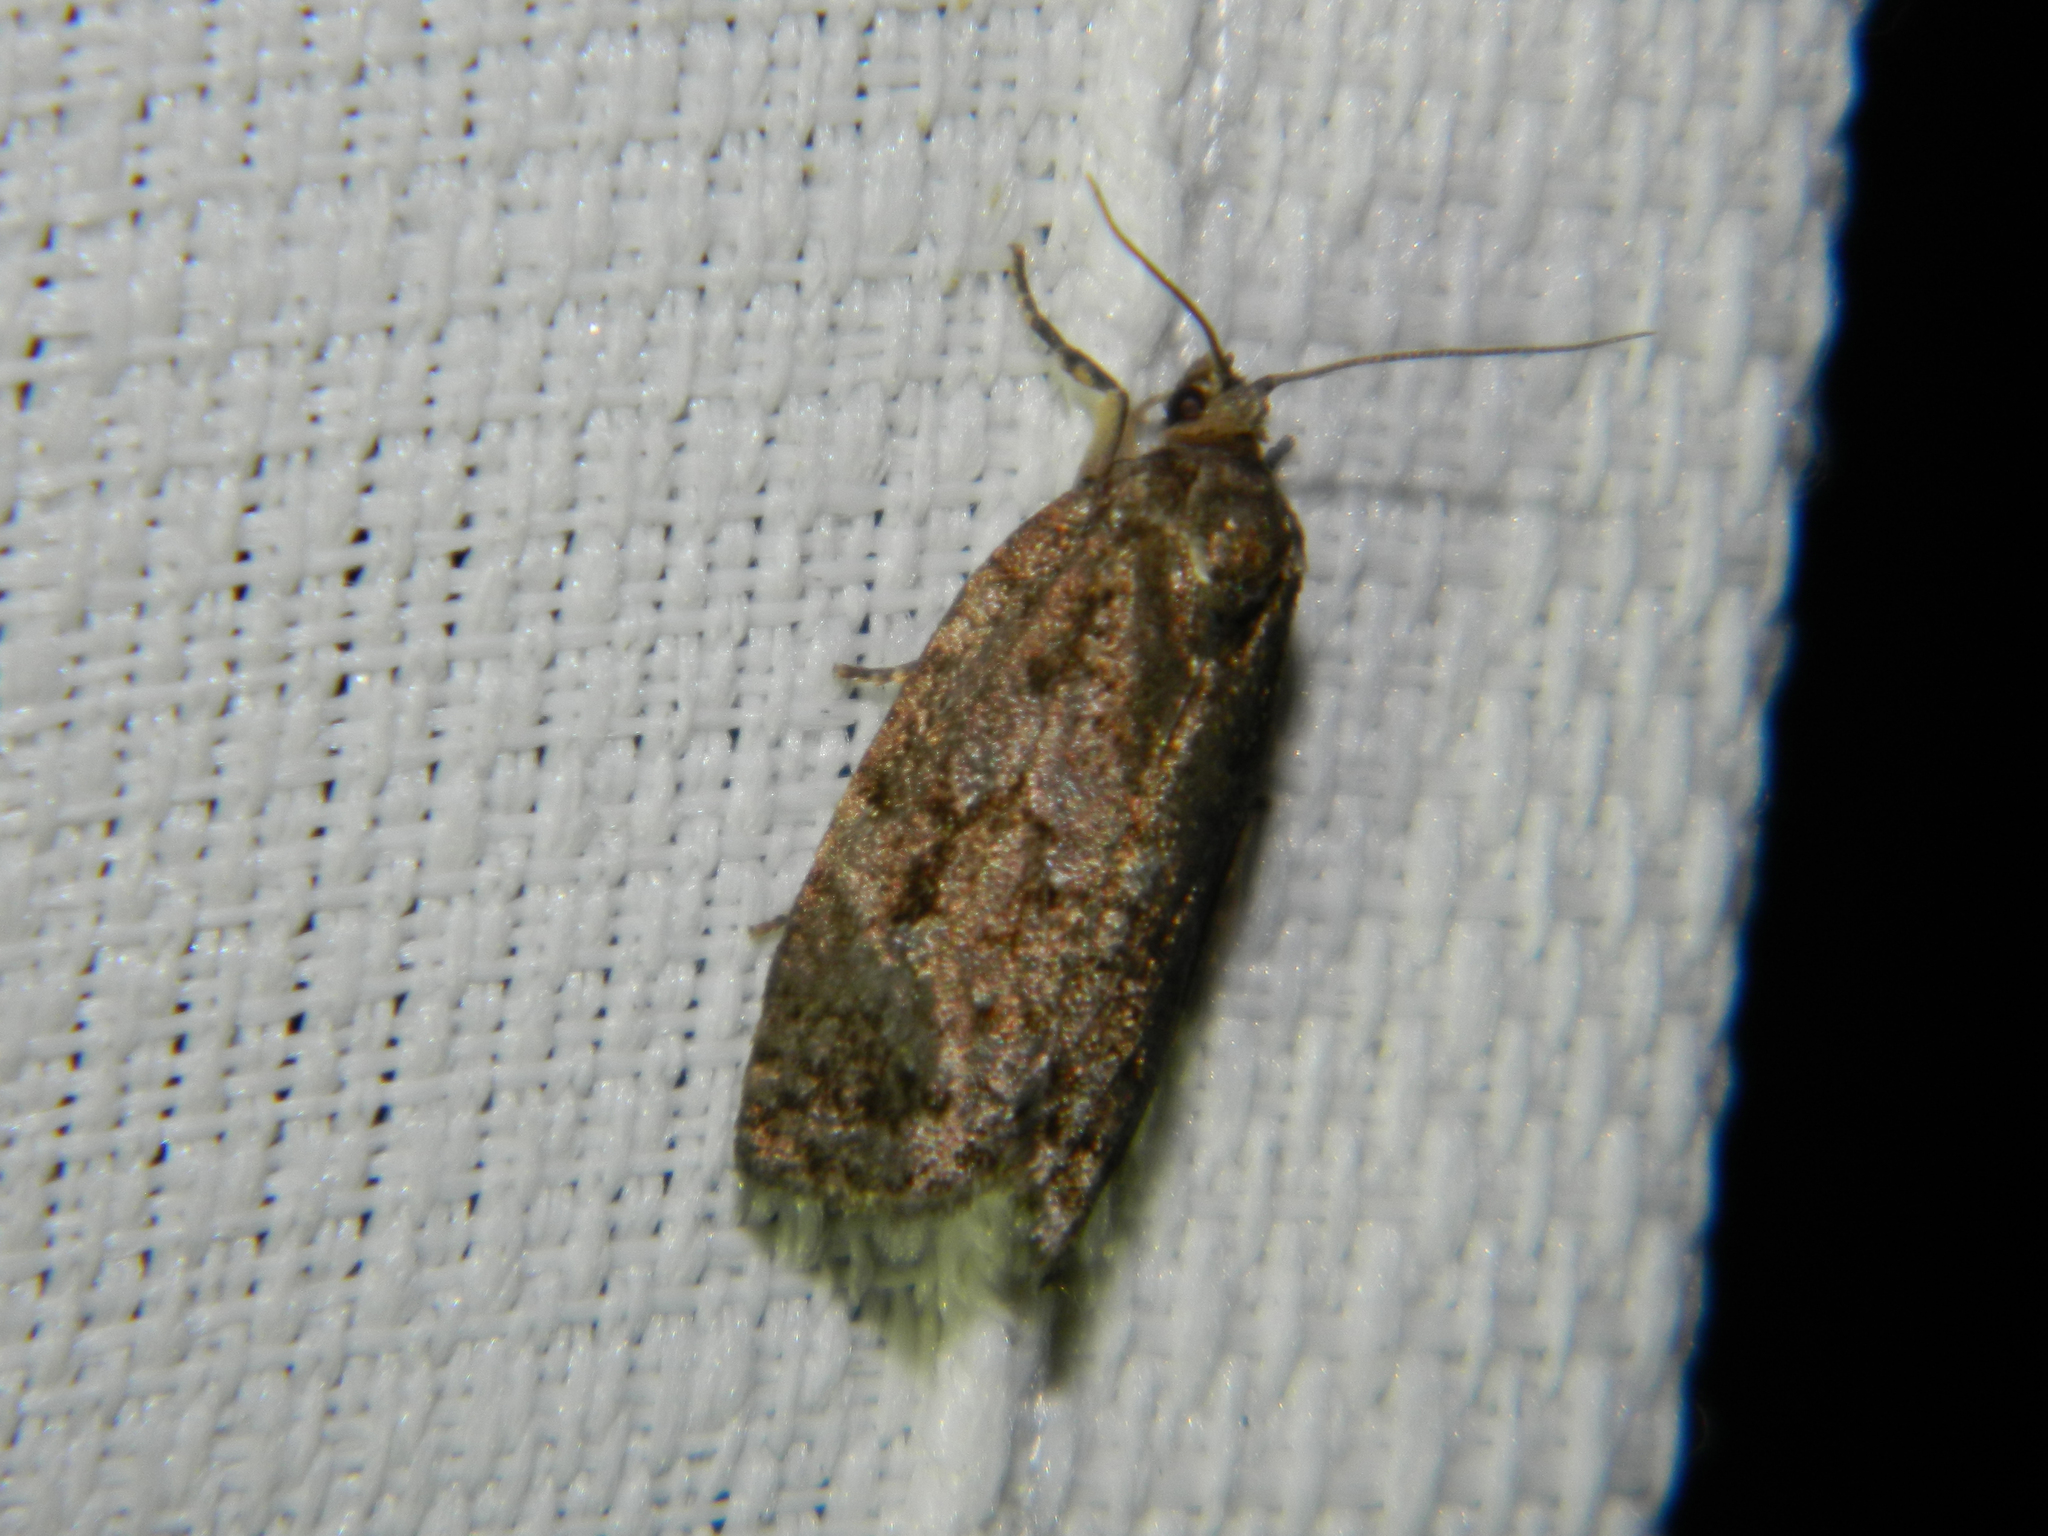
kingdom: Animalia
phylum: Arthropoda
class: Insecta
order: Lepidoptera
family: Tortricidae
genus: Choristoneura
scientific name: Choristoneura fumiferana
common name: Spruce budworm
